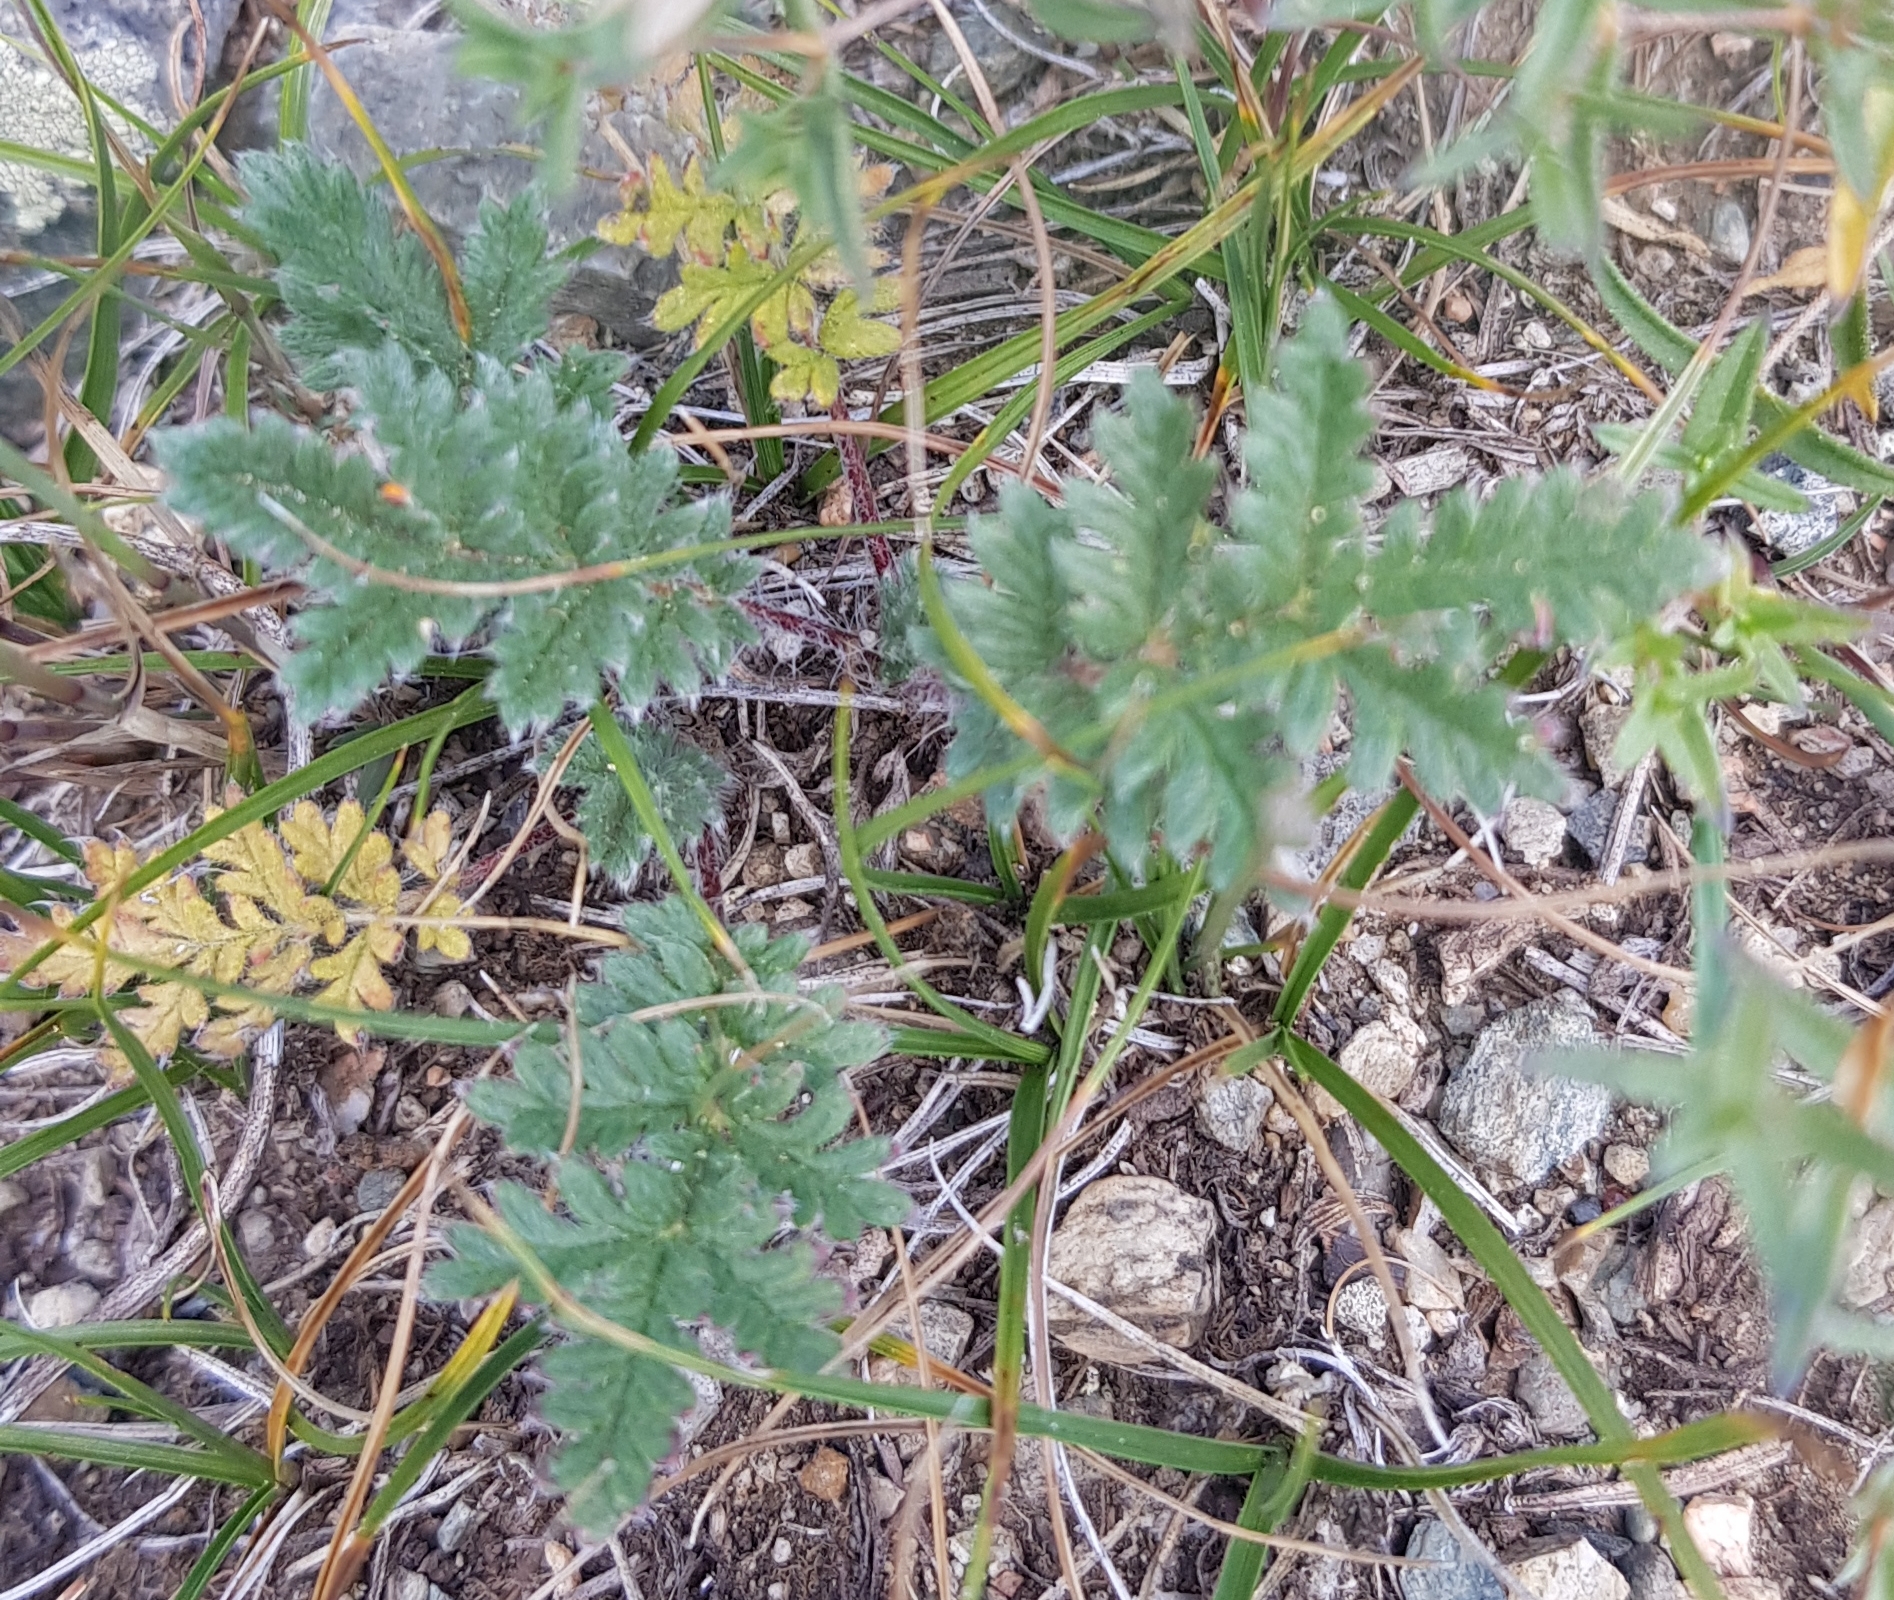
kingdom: Plantae
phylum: Tracheophyta
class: Magnoliopsida
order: Rosales
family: Rosaceae
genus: Potentilla
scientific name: Potentilla sericea
